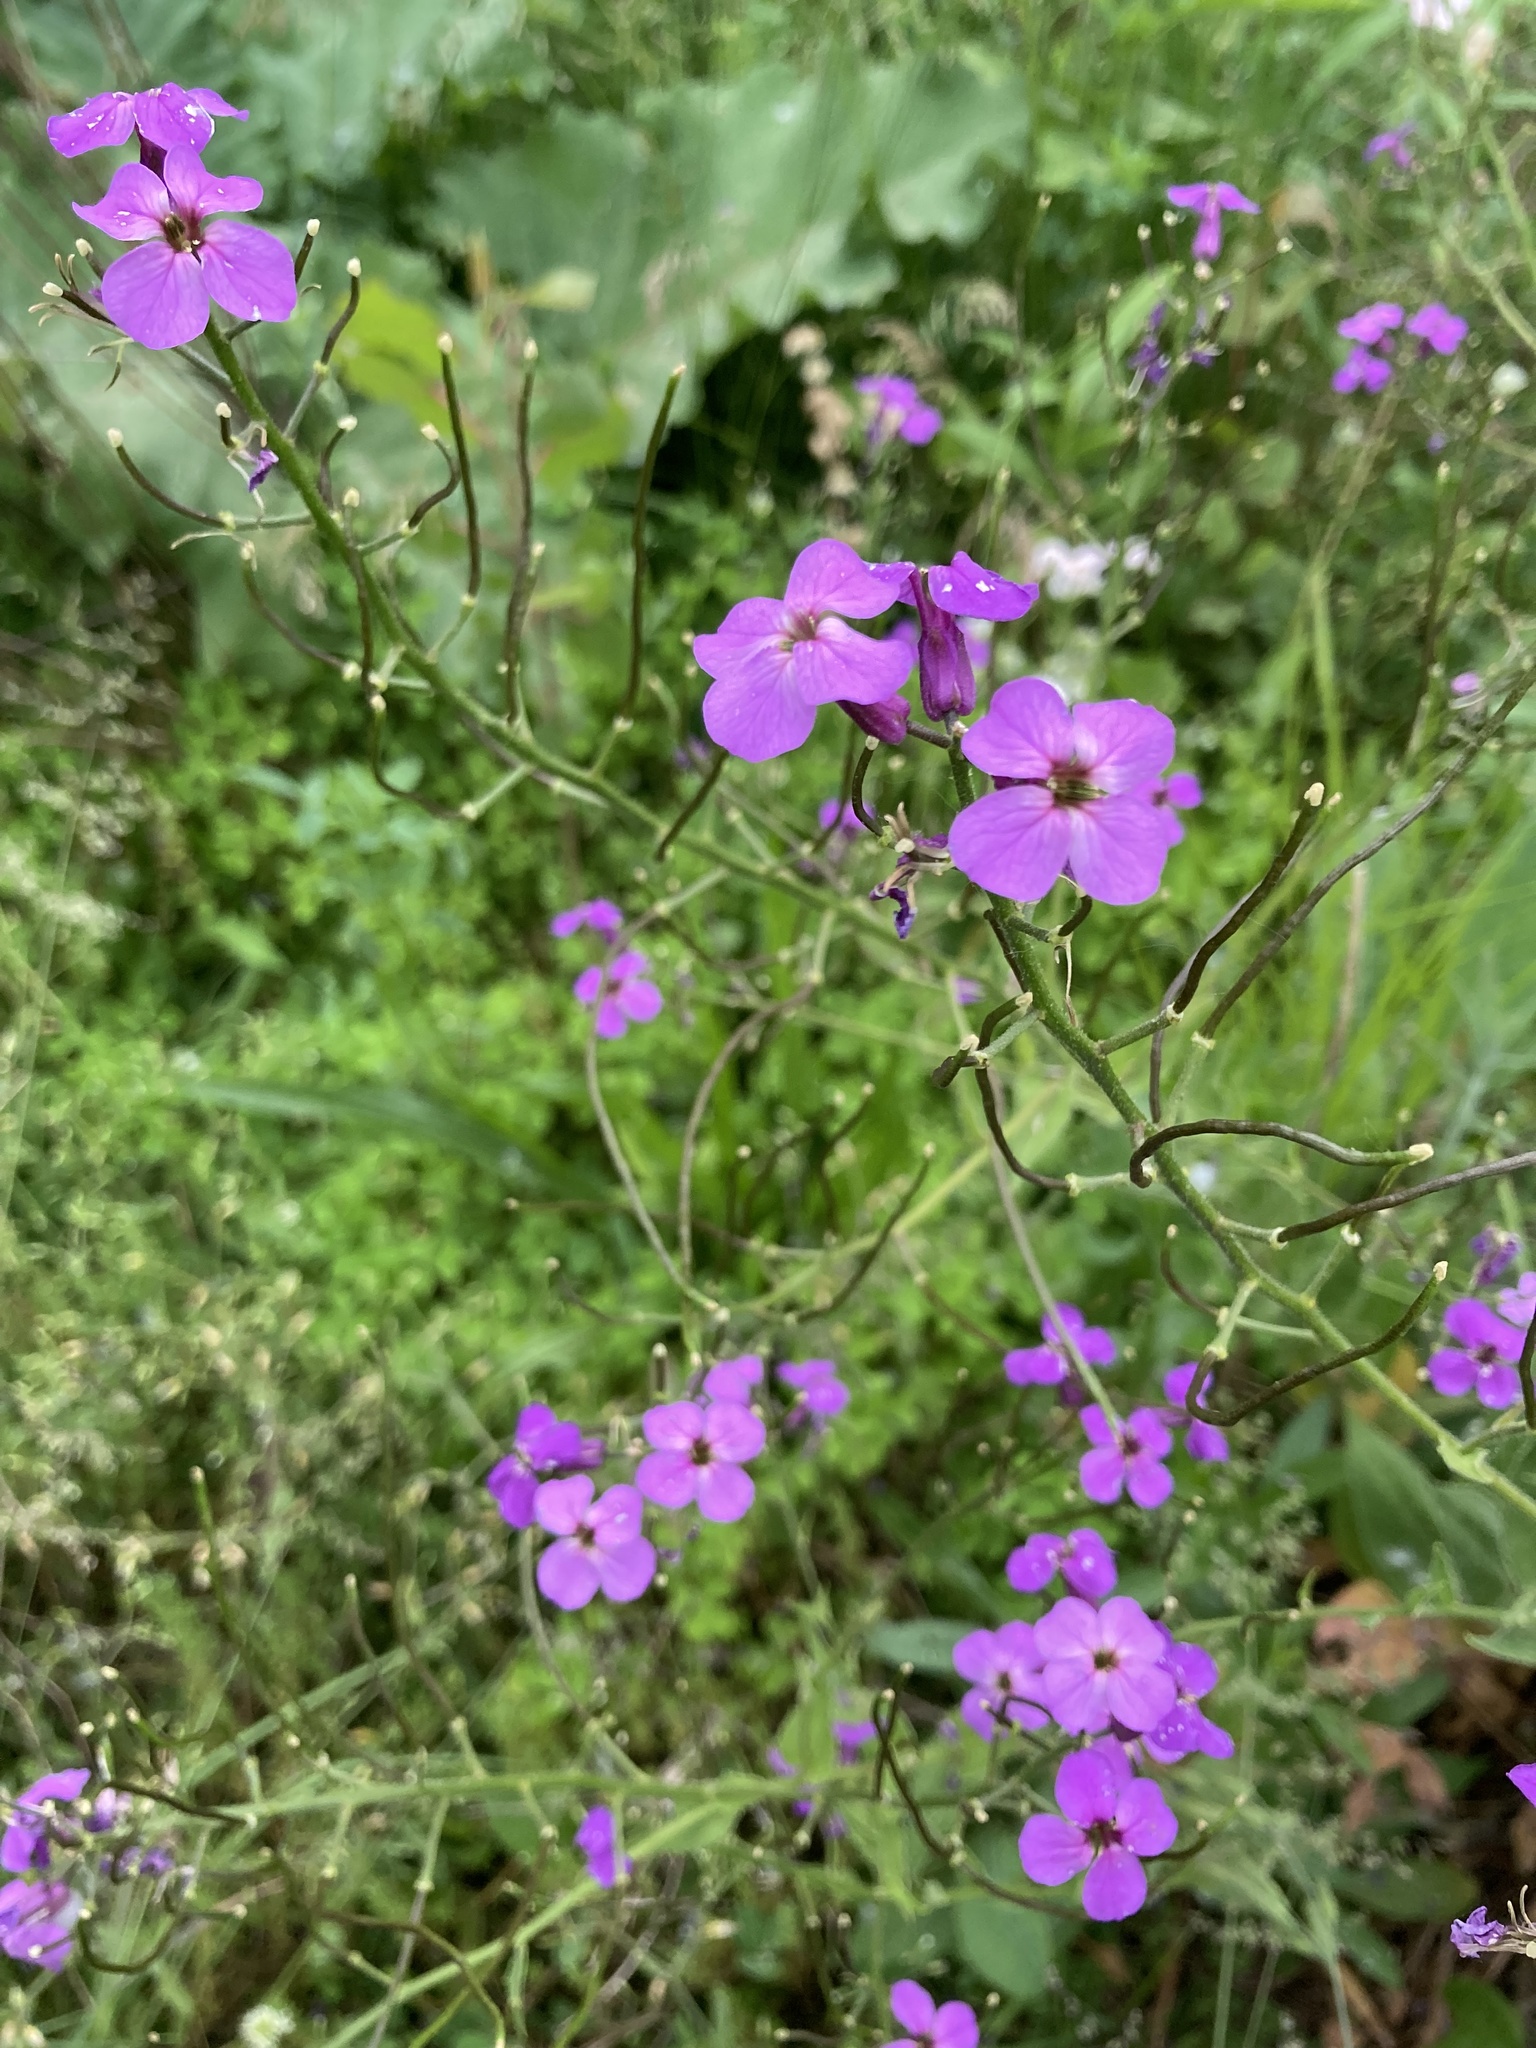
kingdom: Plantae
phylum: Tracheophyta
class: Magnoliopsida
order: Brassicales
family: Brassicaceae
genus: Hesperis
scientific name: Hesperis matronalis
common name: Dame's-violet
